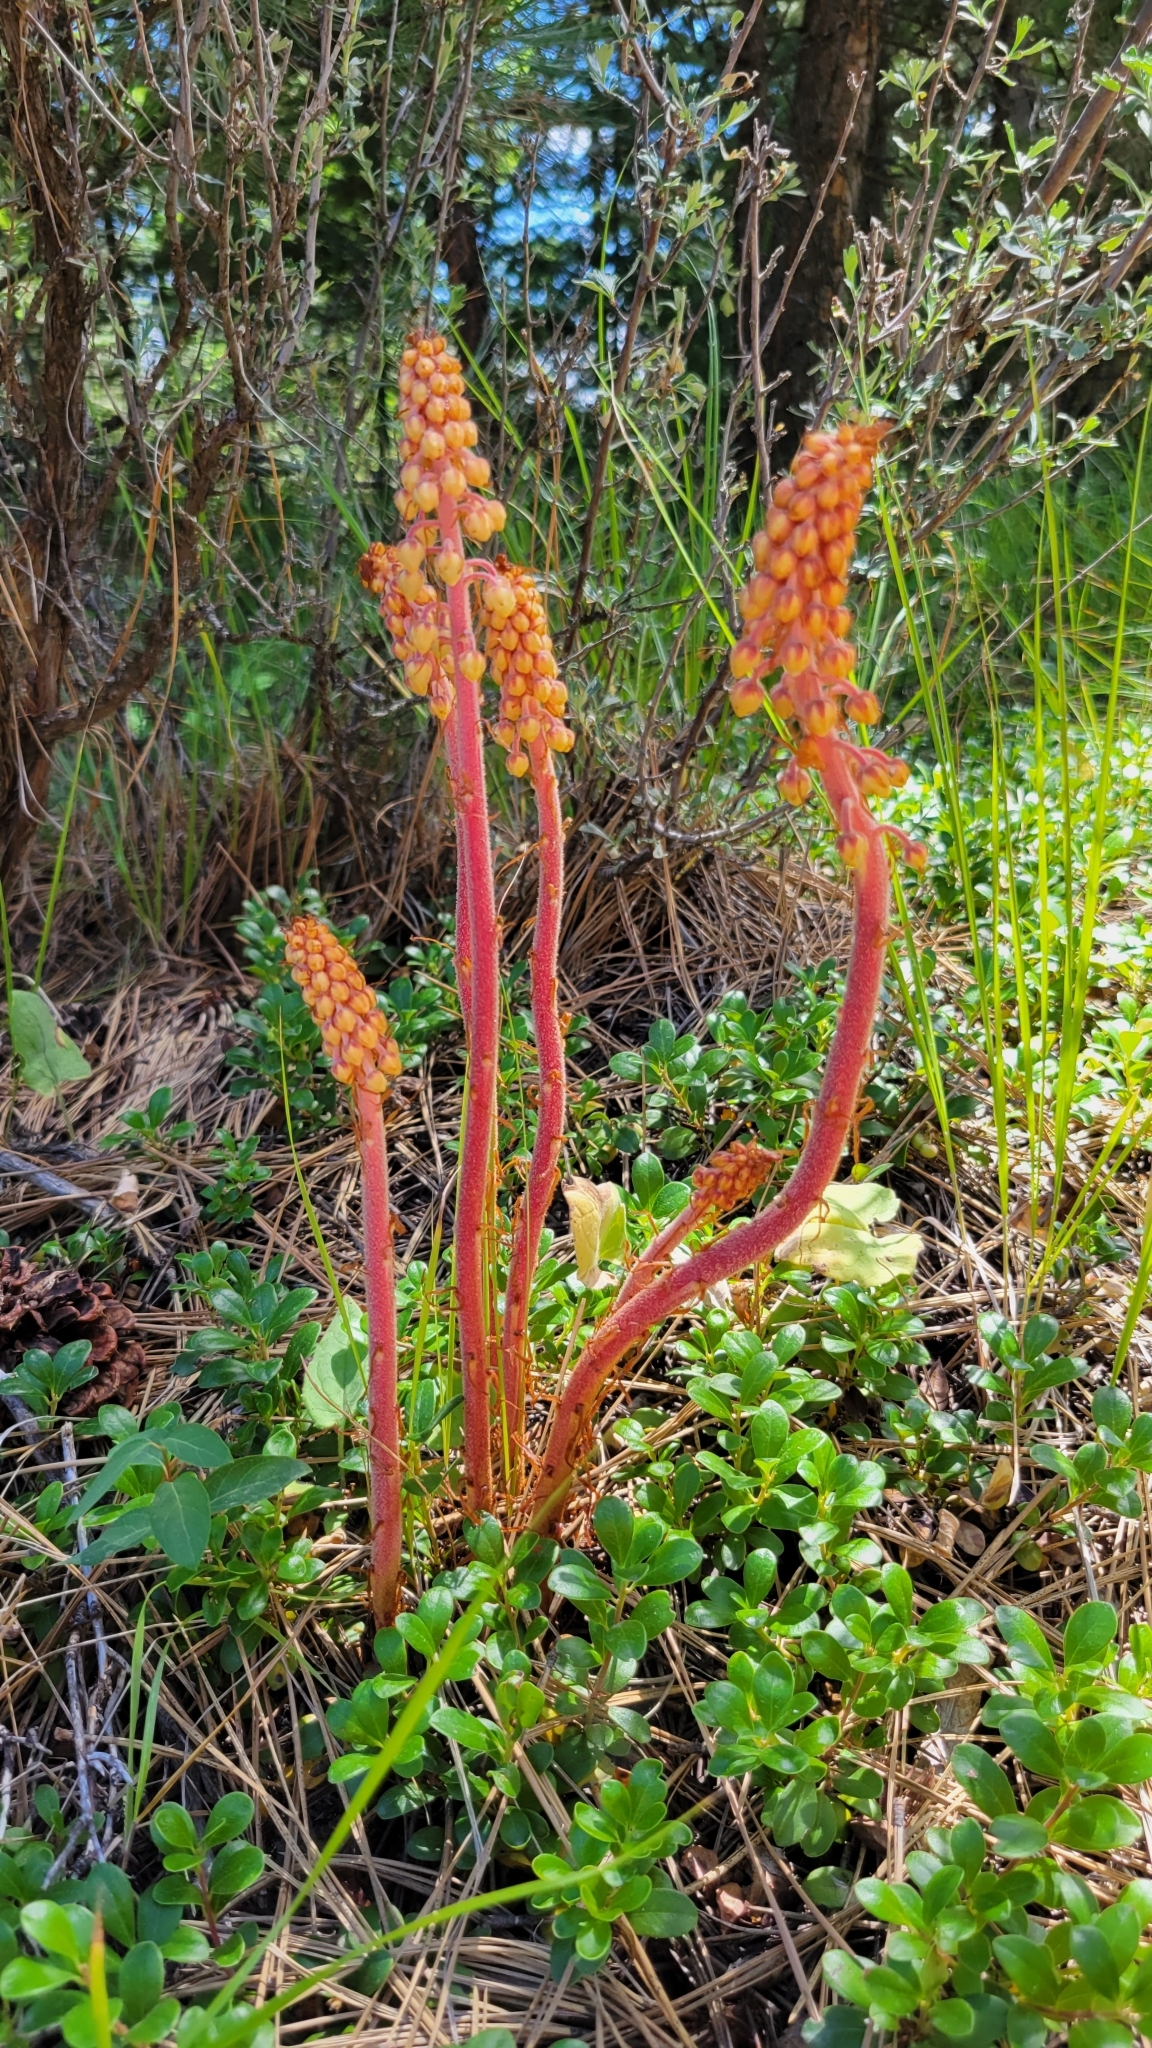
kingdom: Plantae
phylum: Tracheophyta
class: Magnoliopsida
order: Ericales
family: Ericaceae
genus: Pterospora
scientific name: Pterospora andromedea
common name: Giant bird's-nest
